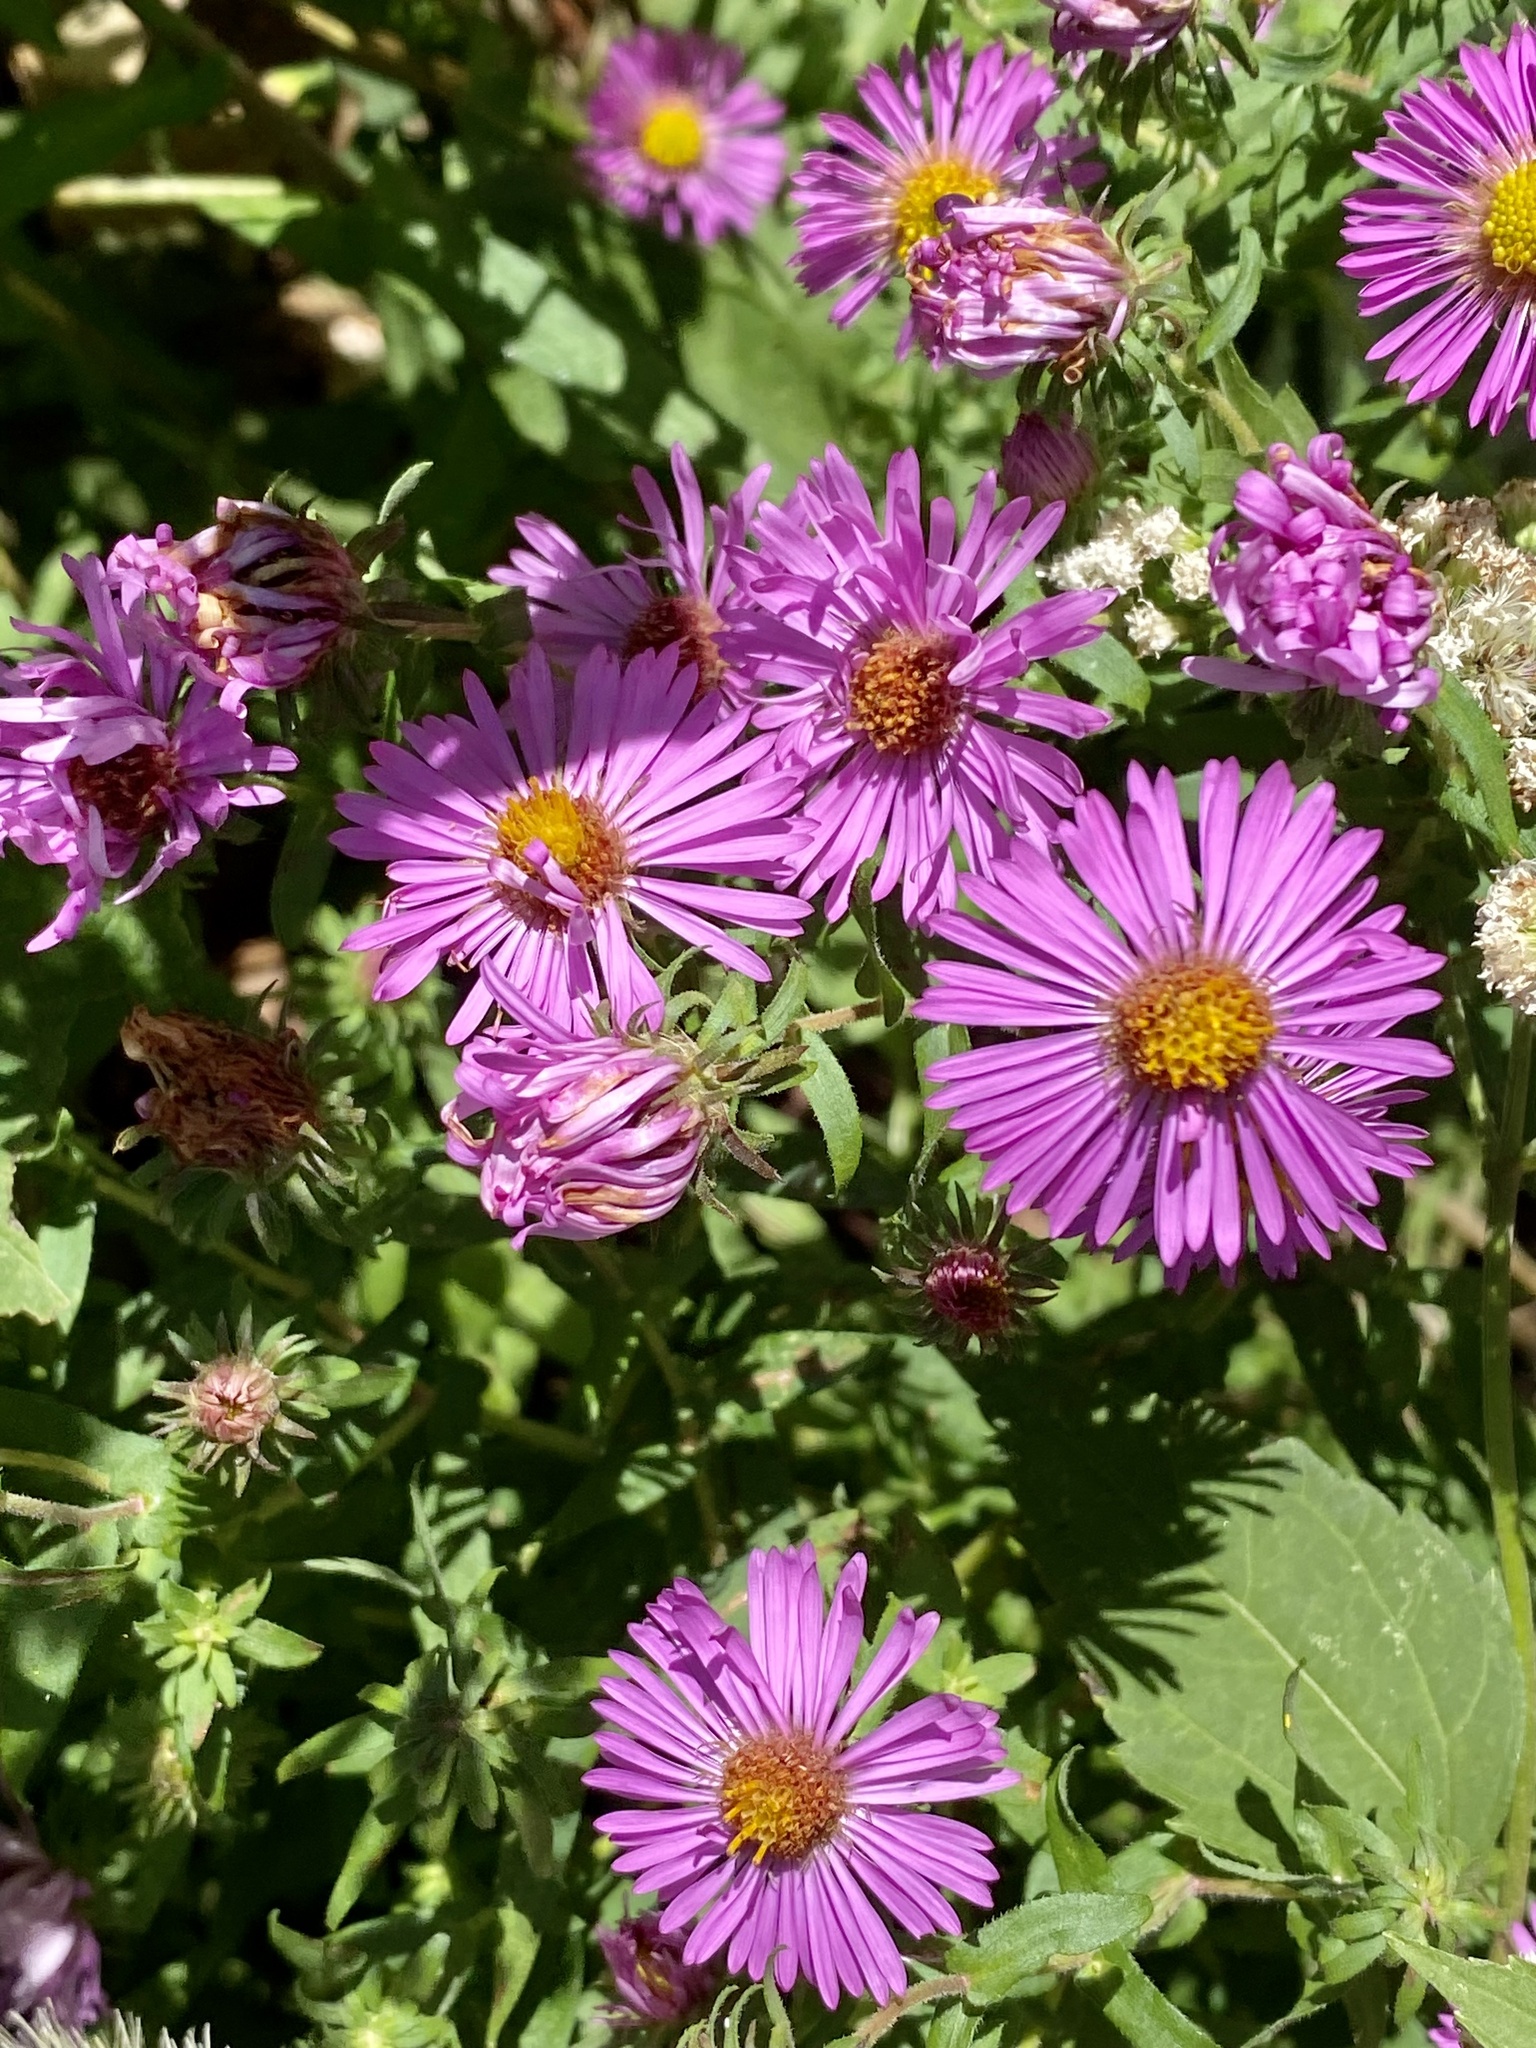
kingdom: Plantae
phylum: Tracheophyta
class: Magnoliopsida
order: Asterales
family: Asteraceae
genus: Symphyotrichum
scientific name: Symphyotrichum novae-angliae
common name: Michaelmas daisy
